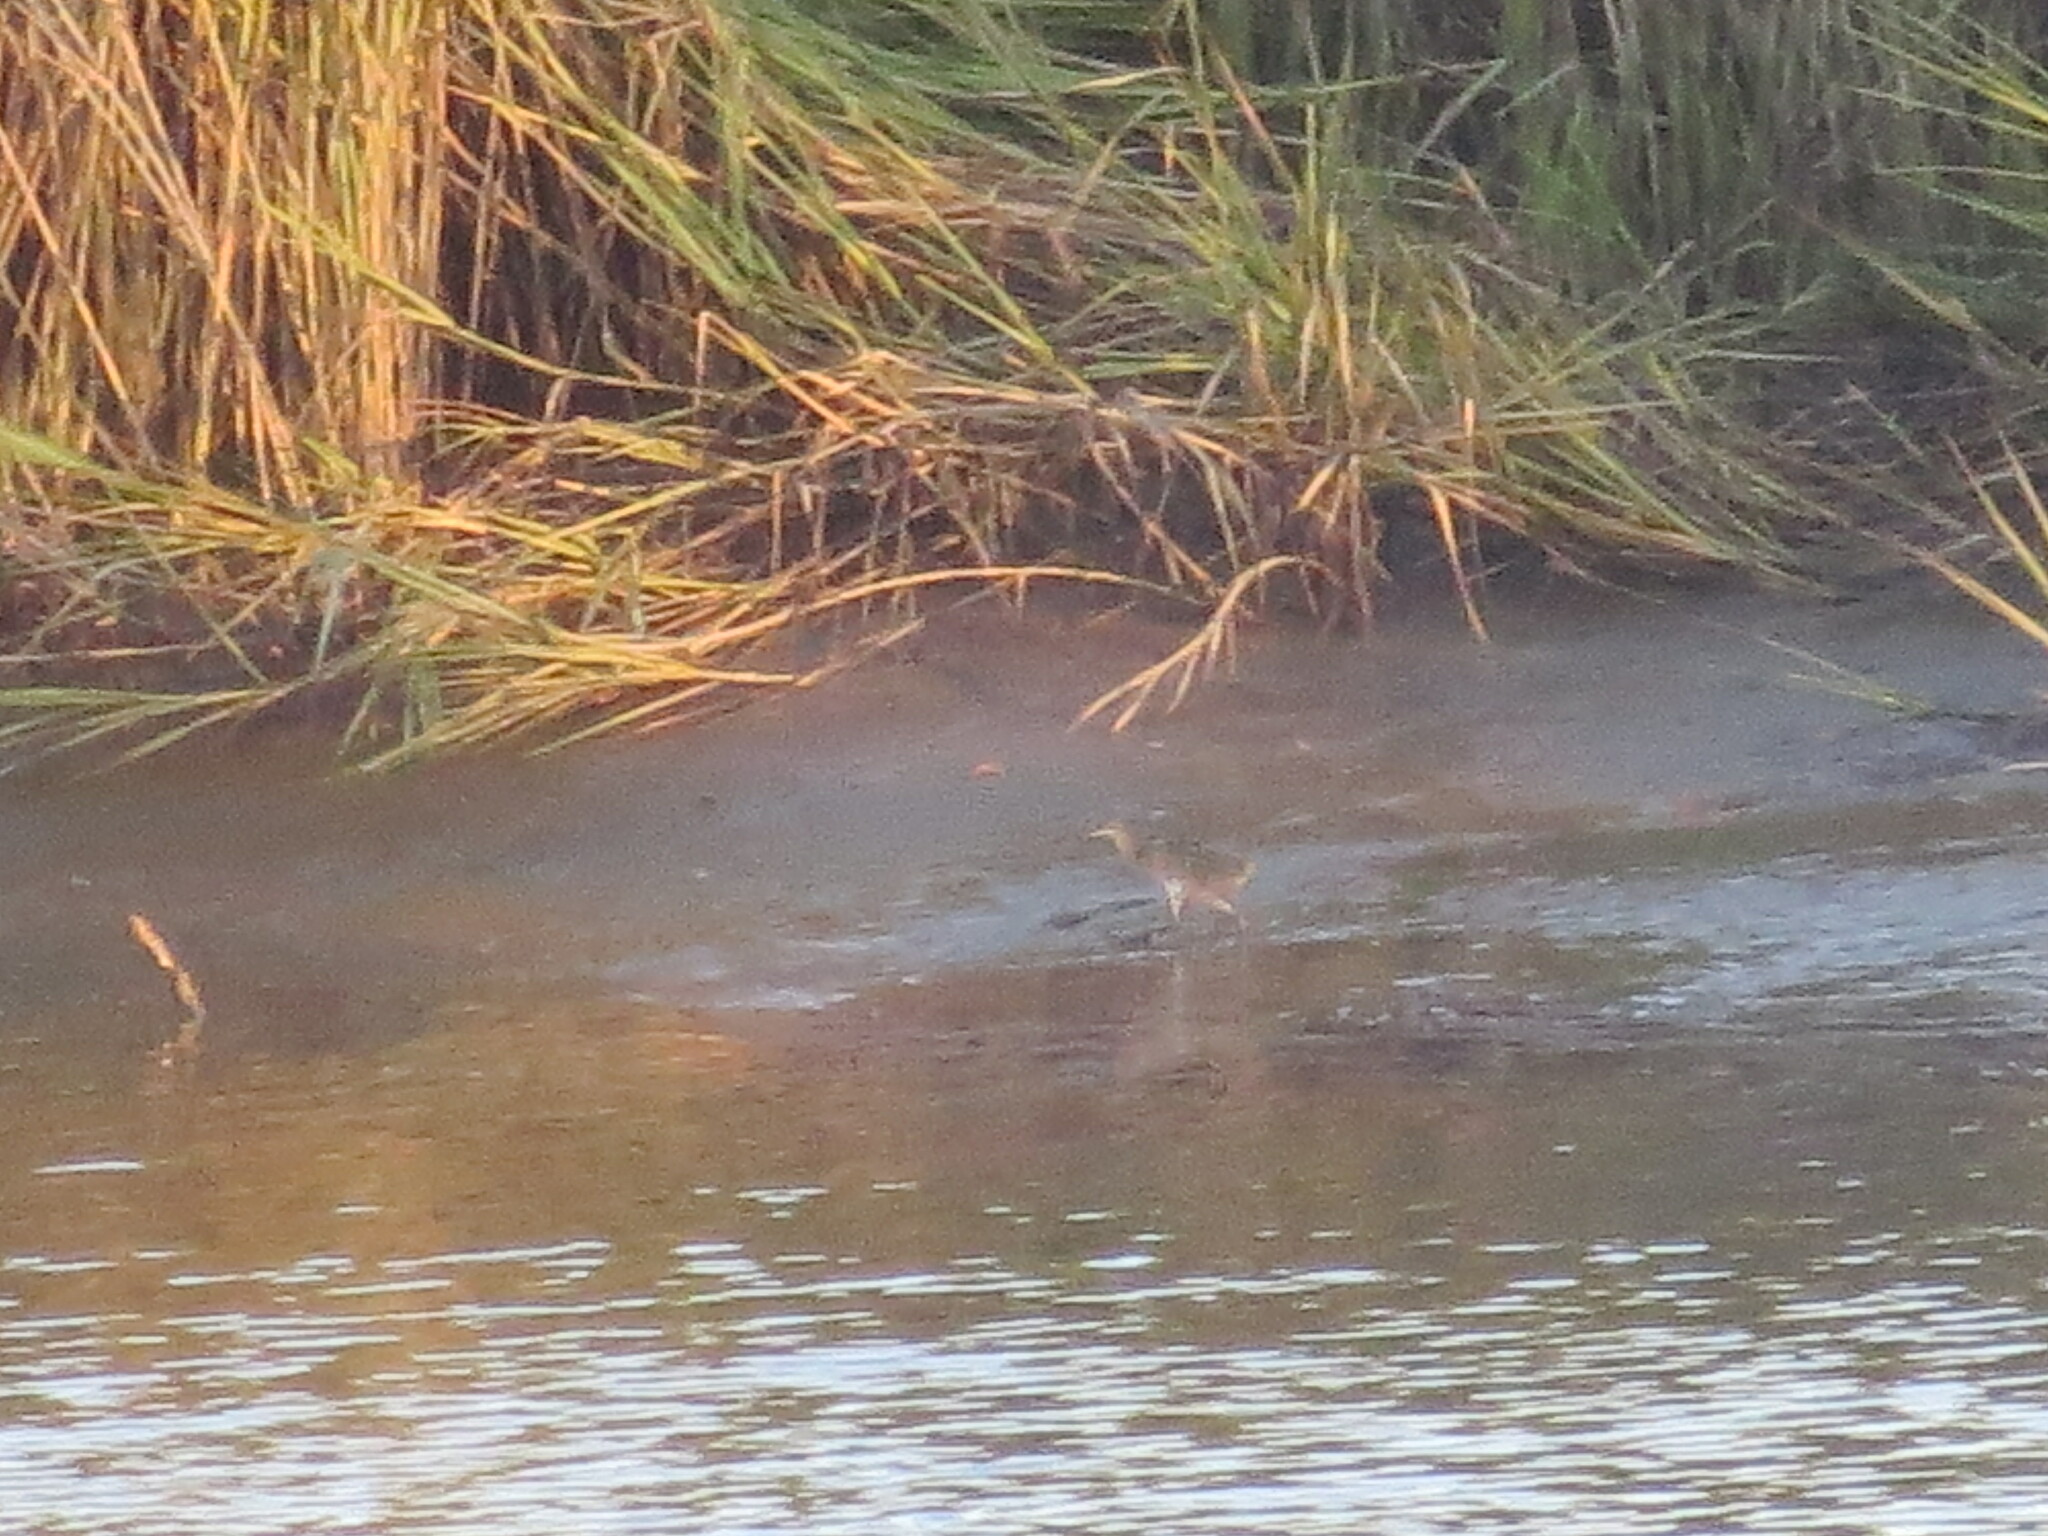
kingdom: Animalia
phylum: Chordata
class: Aves
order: Gruiformes
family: Rallidae
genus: Rallus
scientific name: Rallus crepitans
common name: Clapper rail
